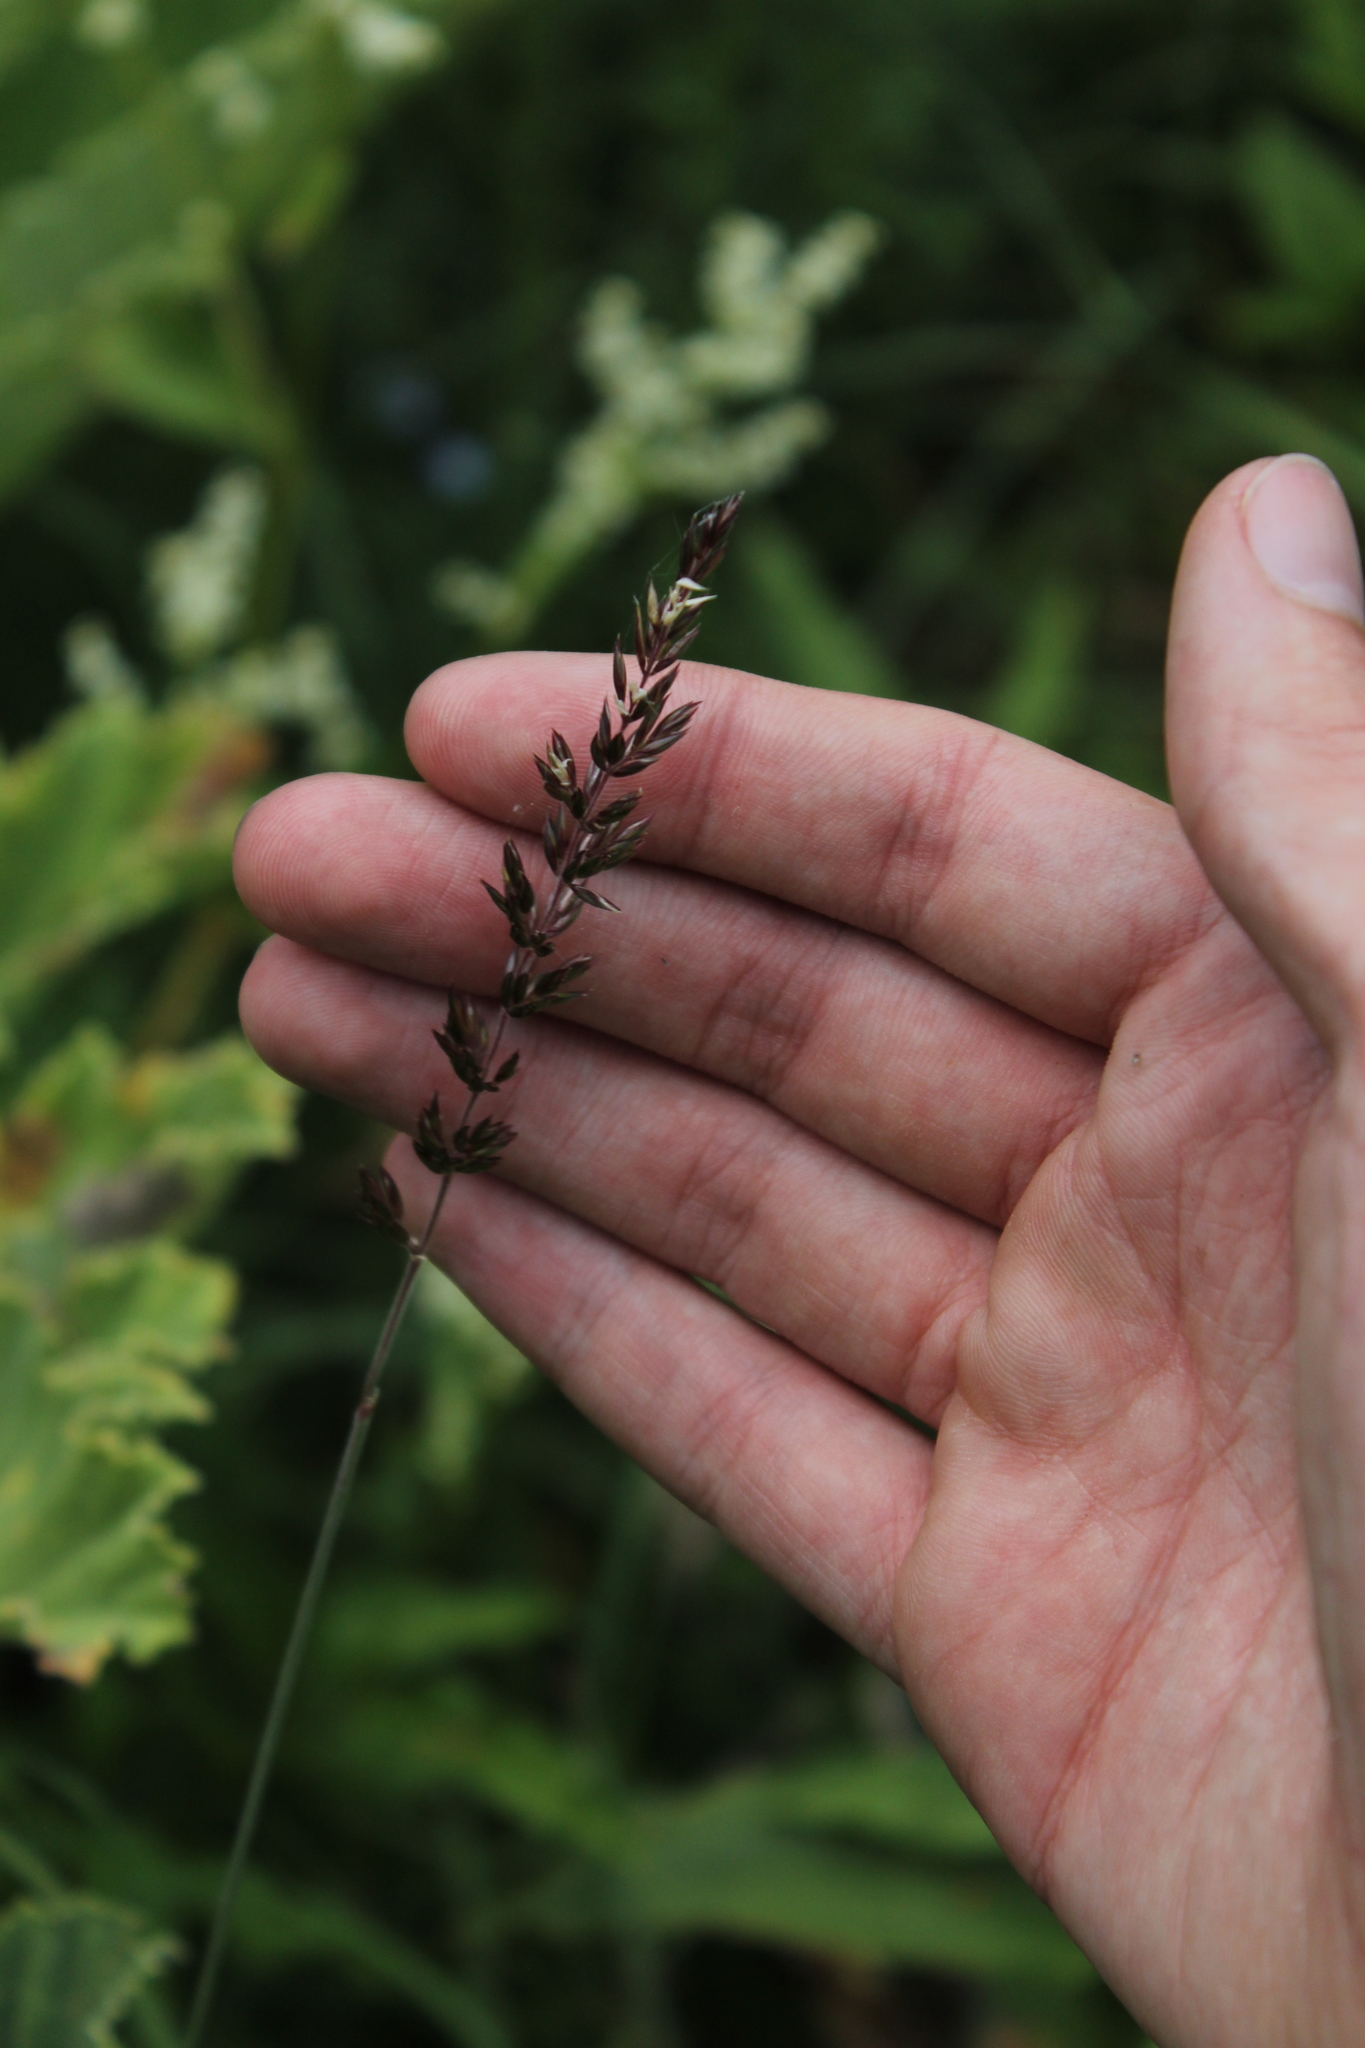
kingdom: Plantae
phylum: Tracheophyta
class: Liliopsida
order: Poales
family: Poaceae
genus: Koeleria
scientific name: Koeleria eriostachya
